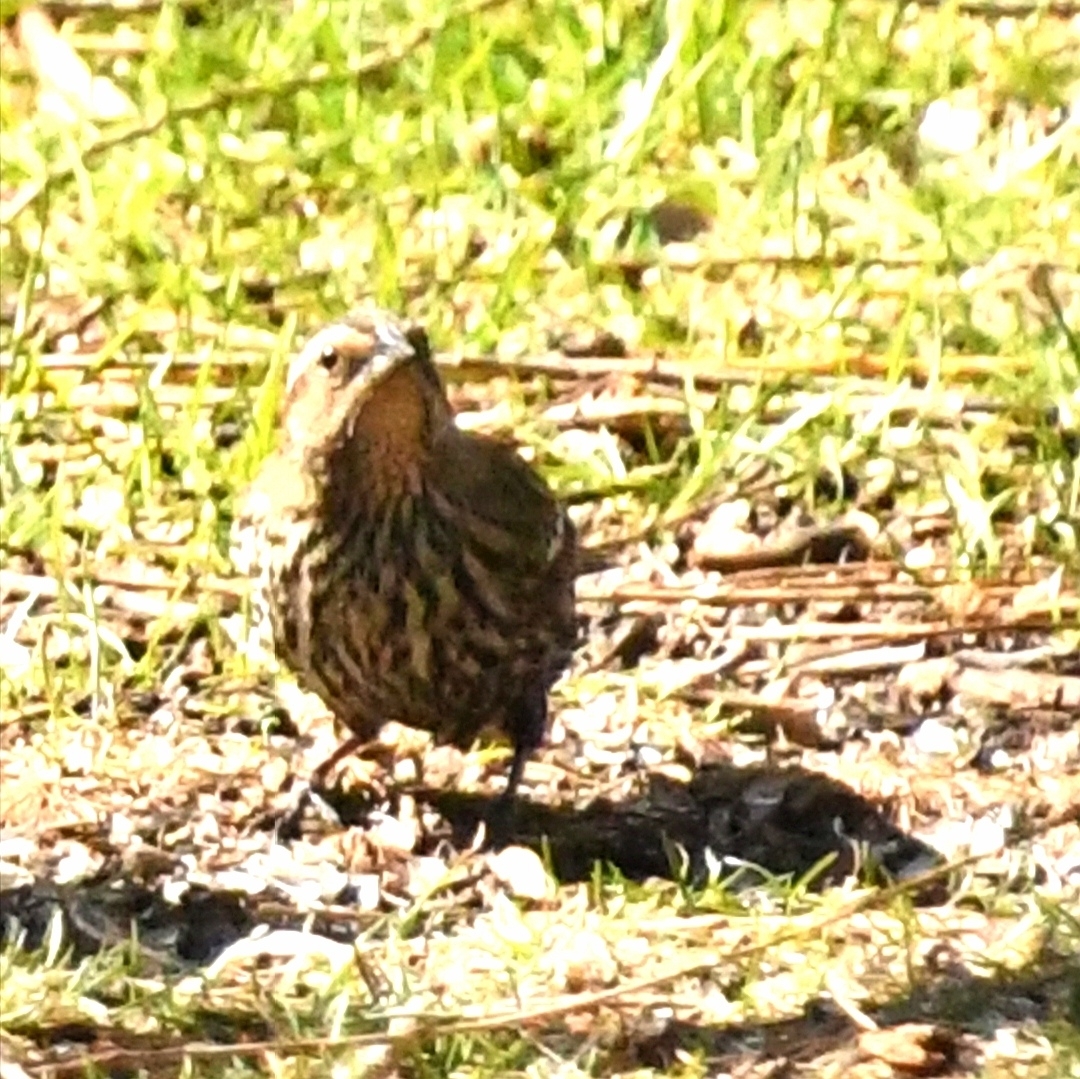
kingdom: Animalia
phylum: Chordata
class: Aves
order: Passeriformes
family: Icteridae
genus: Agelaius
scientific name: Agelaius phoeniceus
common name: Red-winged blackbird
